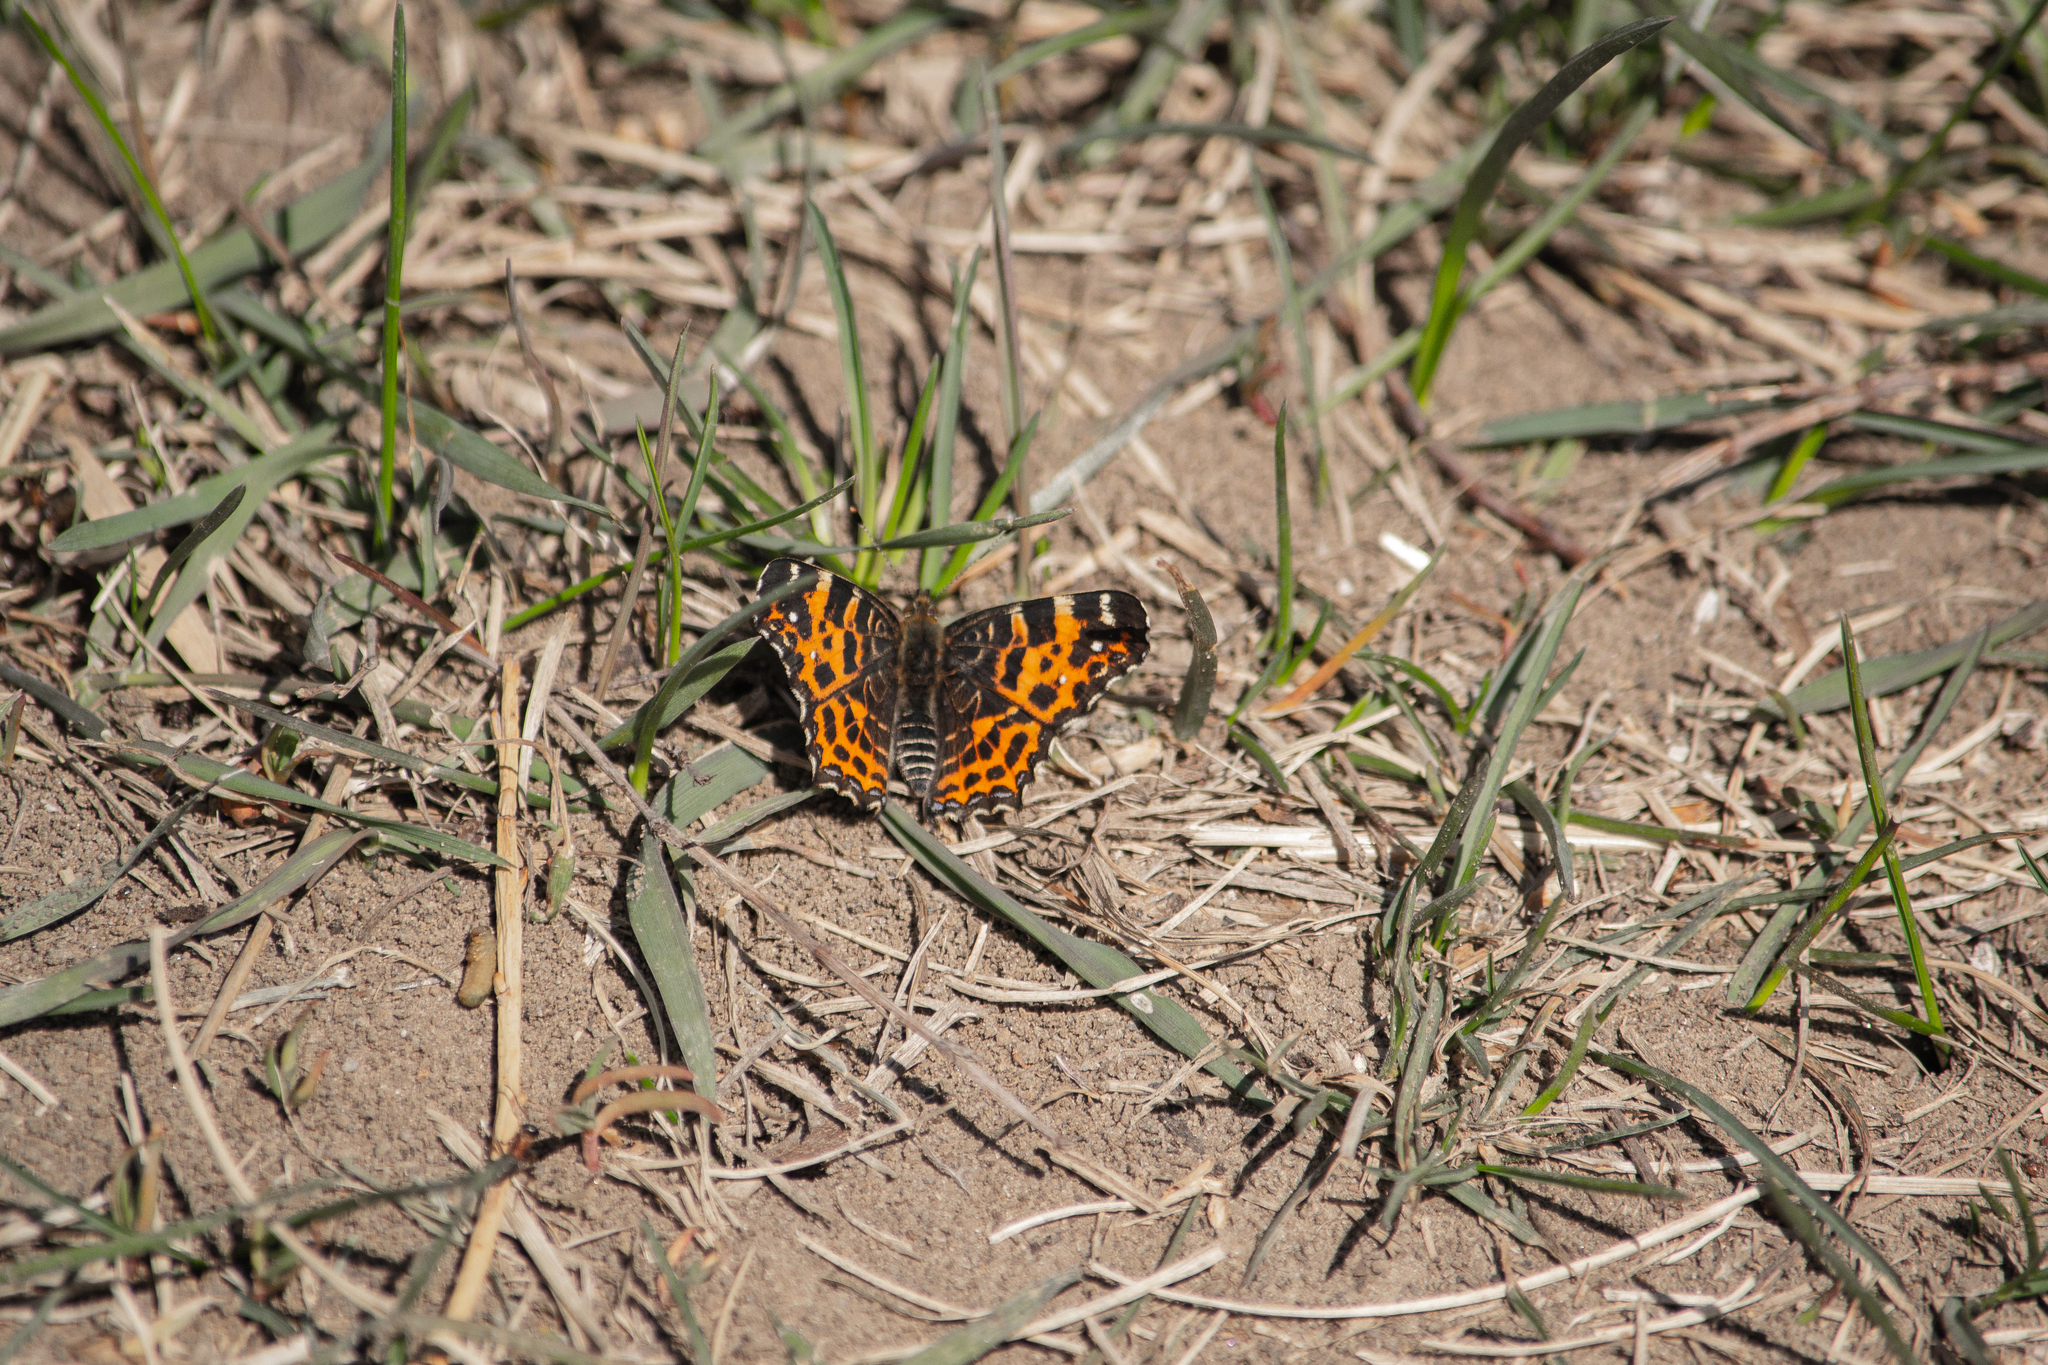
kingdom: Animalia
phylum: Arthropoda
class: Insecta
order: Lepidoptera
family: Nymphalidae
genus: Araschnia
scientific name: Araschnia levana
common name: Map butterfly
